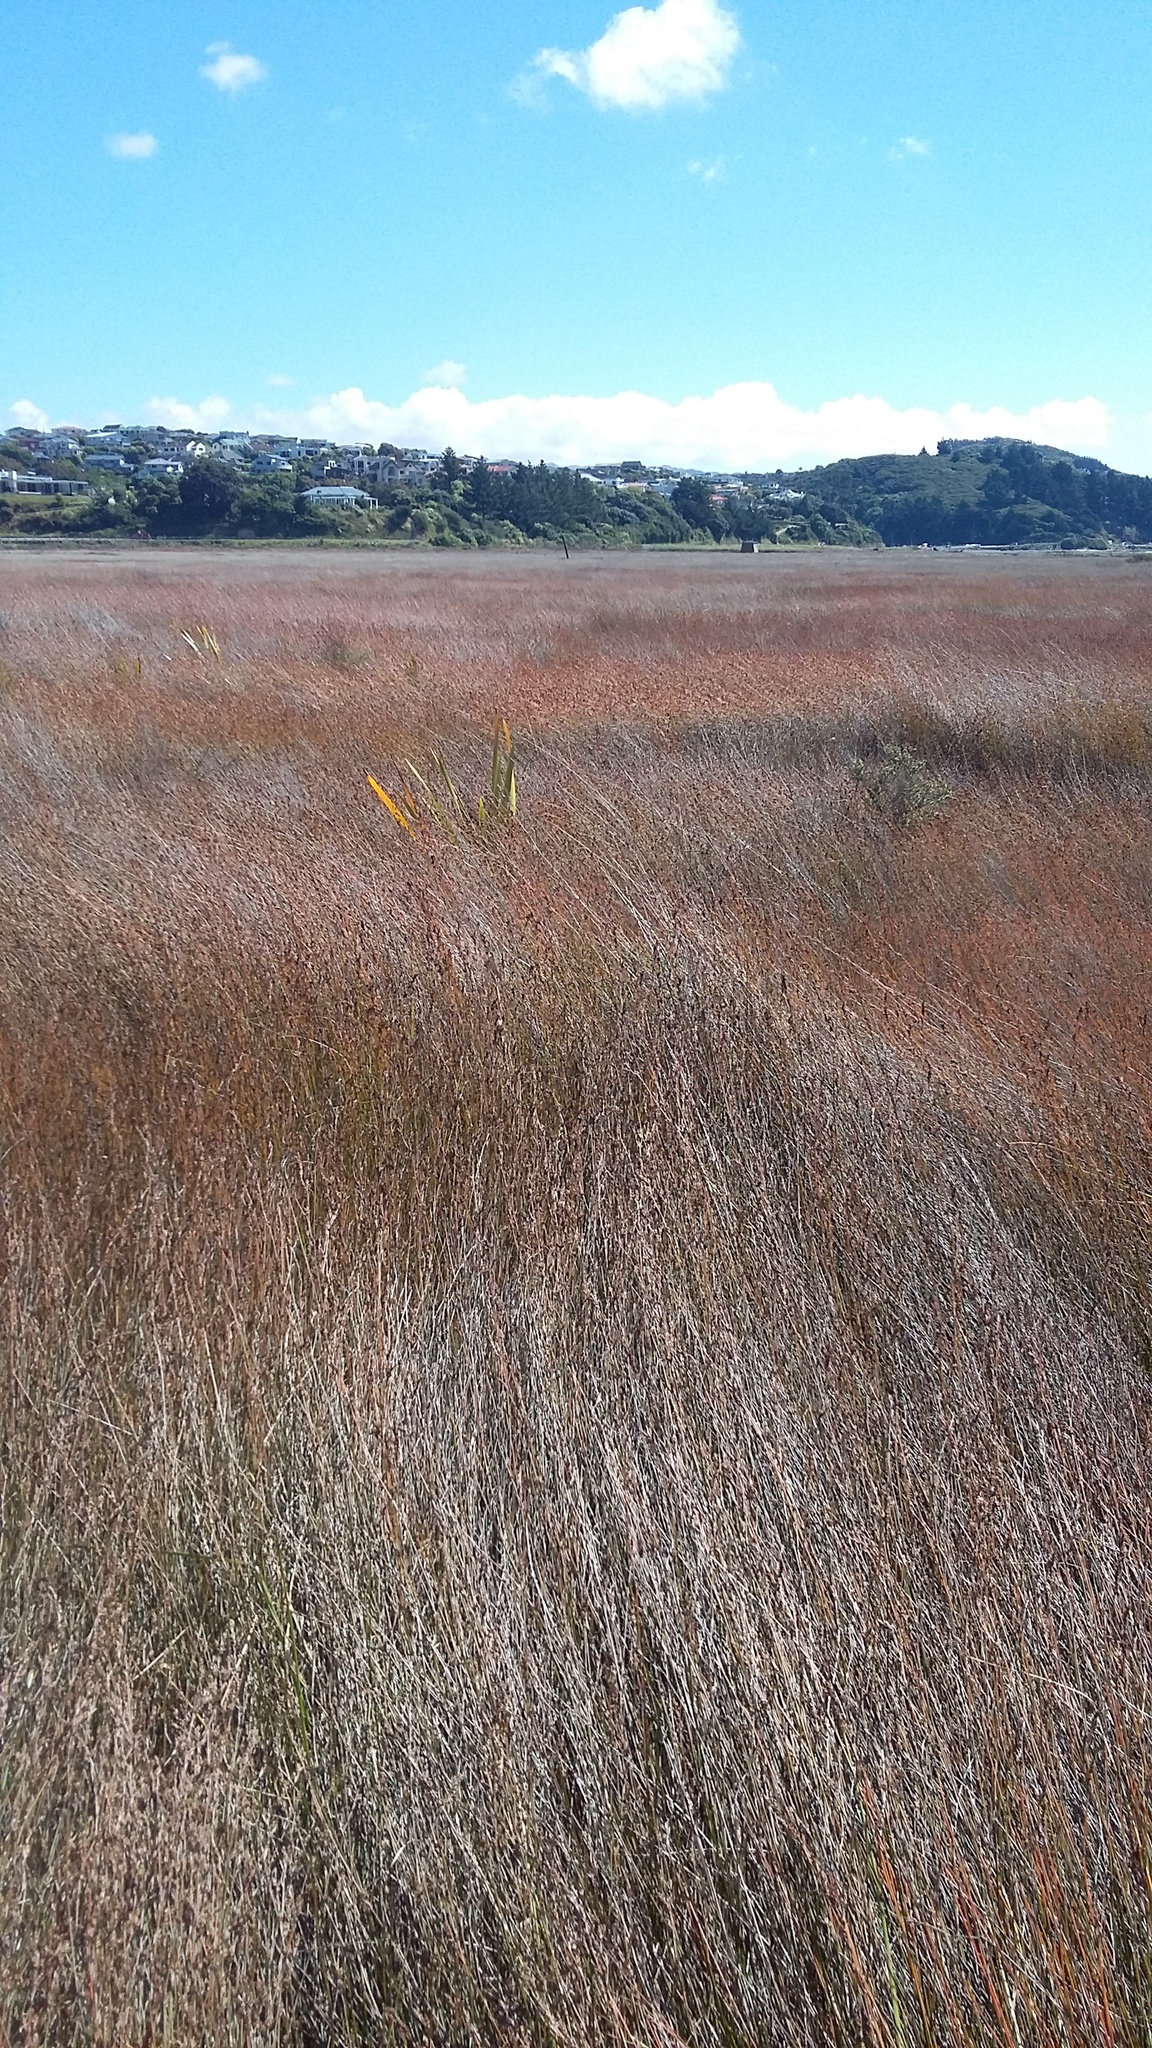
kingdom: Plantae
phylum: Tracheophyta
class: Liliopsida
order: Poales
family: Restionaceae
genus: Apodasmia
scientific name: Apodasmia similis
